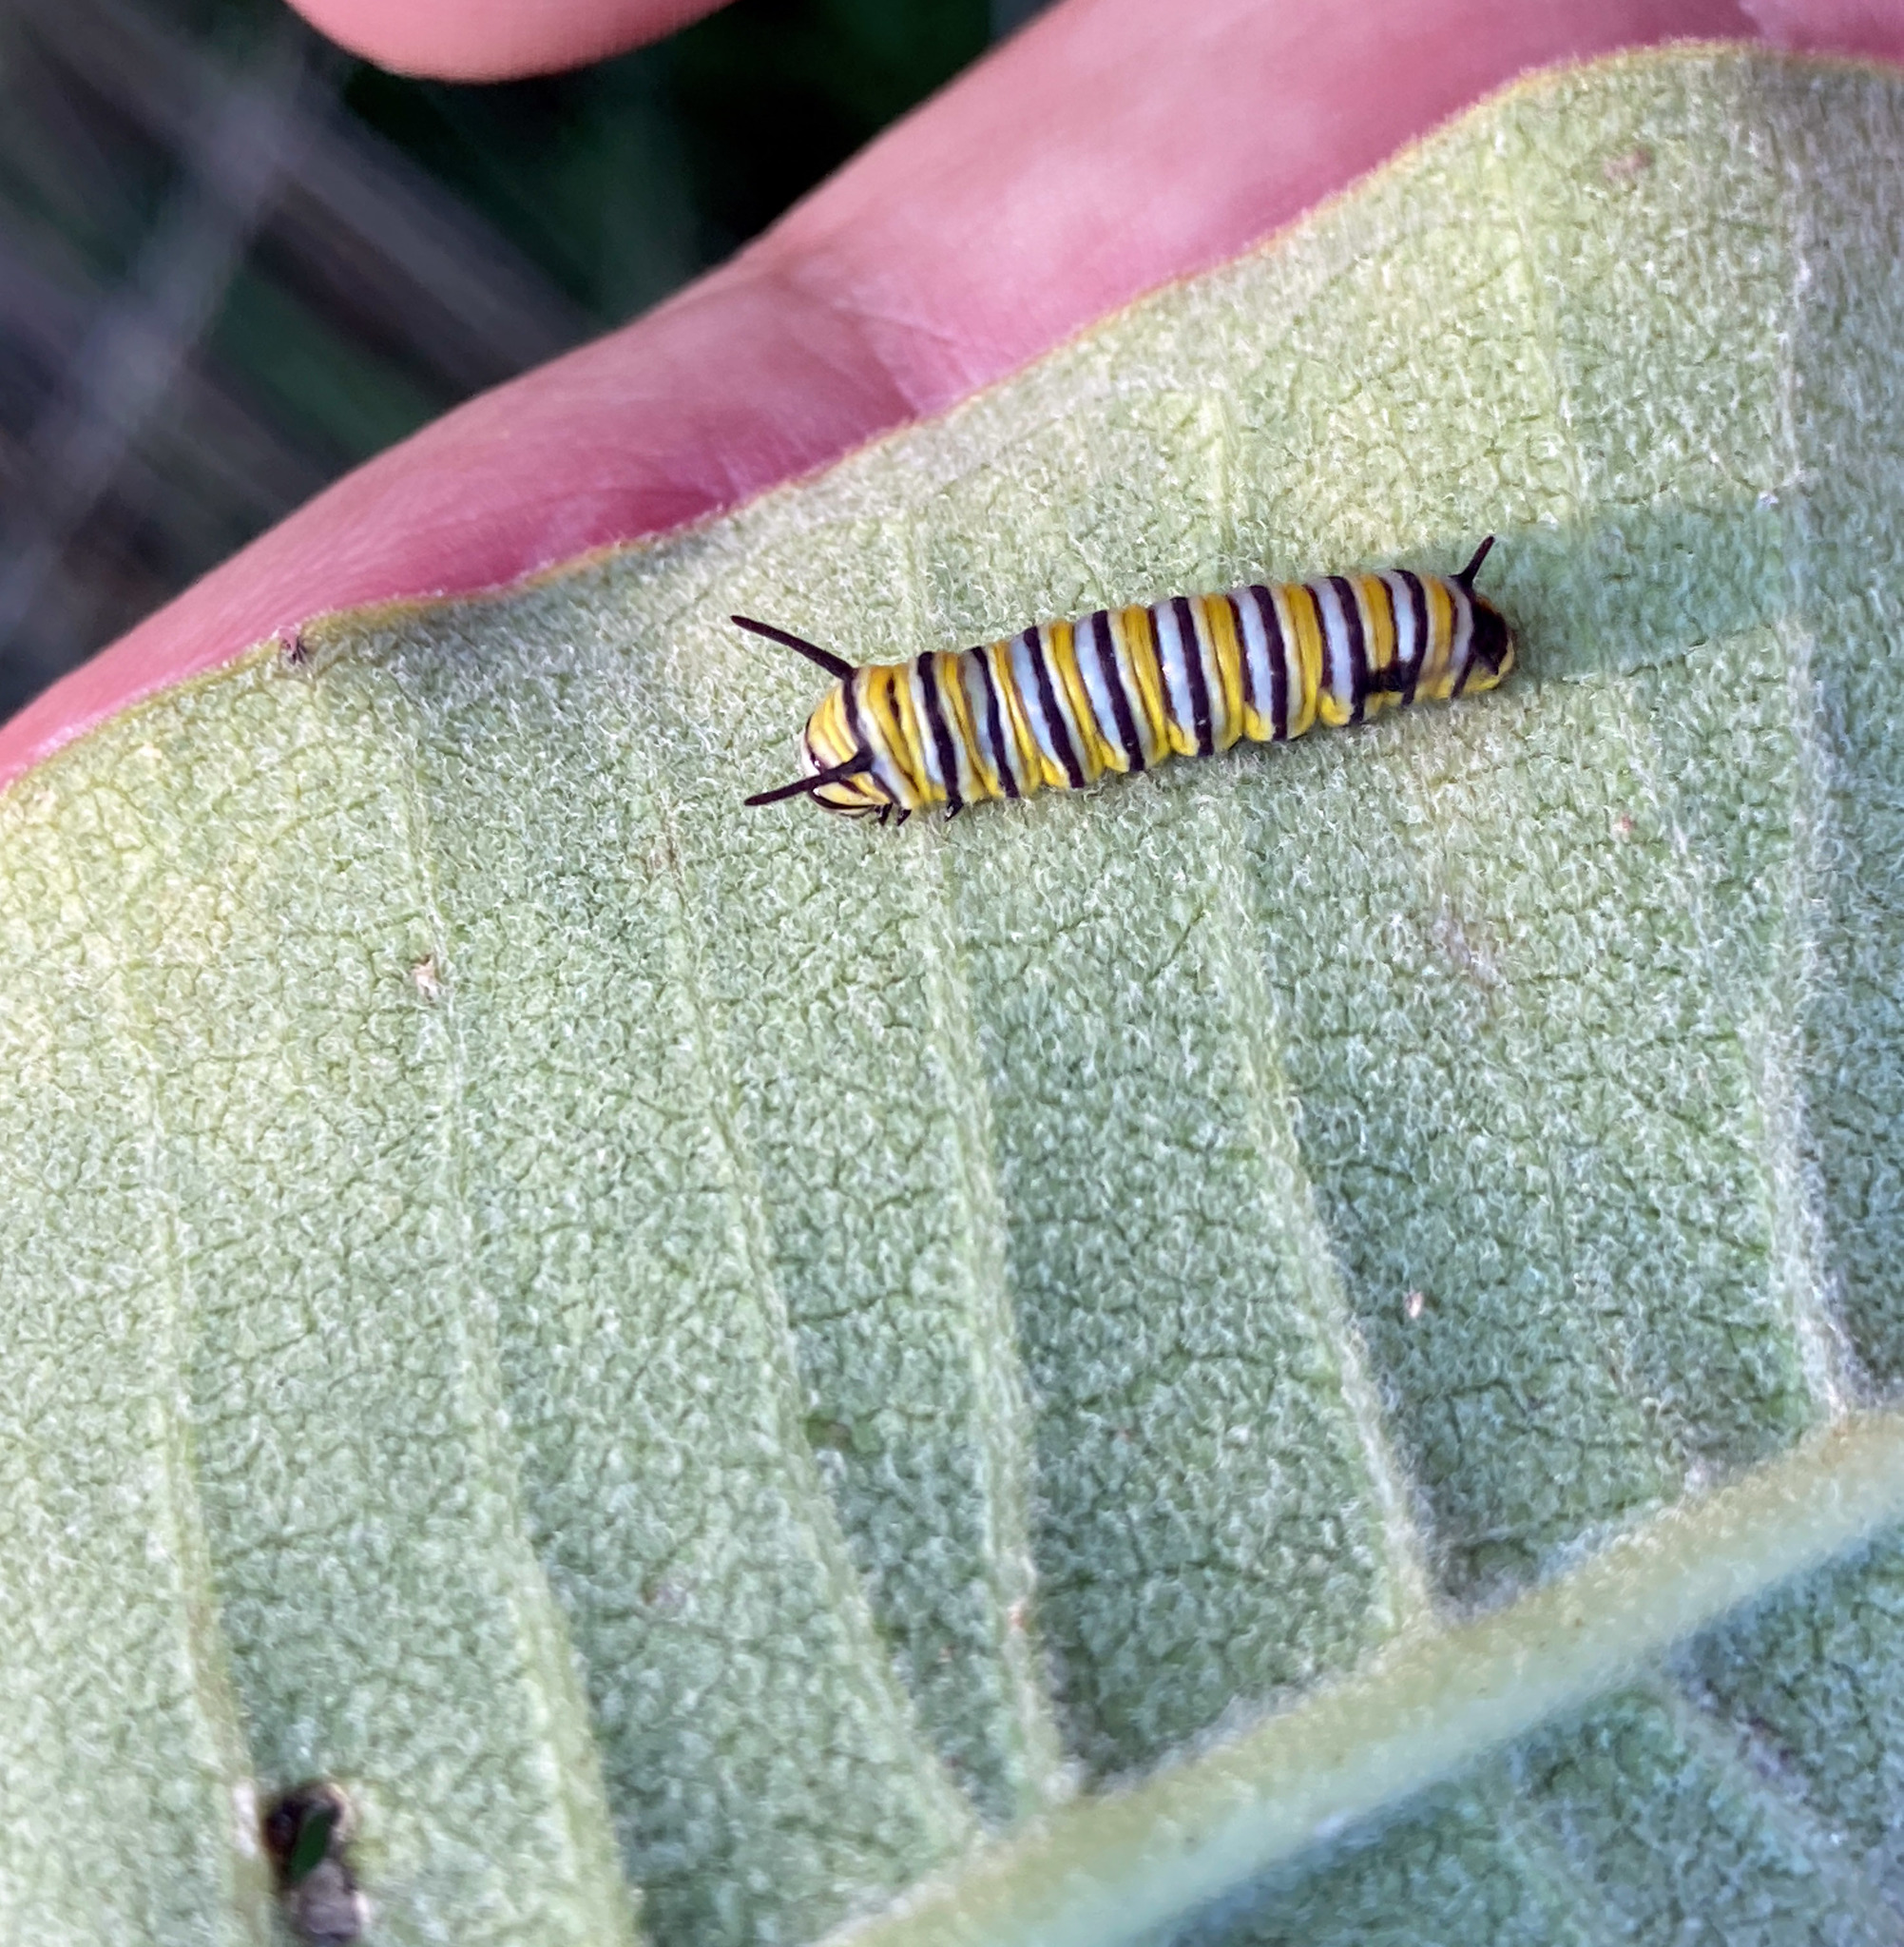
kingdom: Animalia
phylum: Arthropoda
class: Insecta
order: Lepidoptera
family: Nymphalidae
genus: Danaus
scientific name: Danaus plexippus
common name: Monarch
